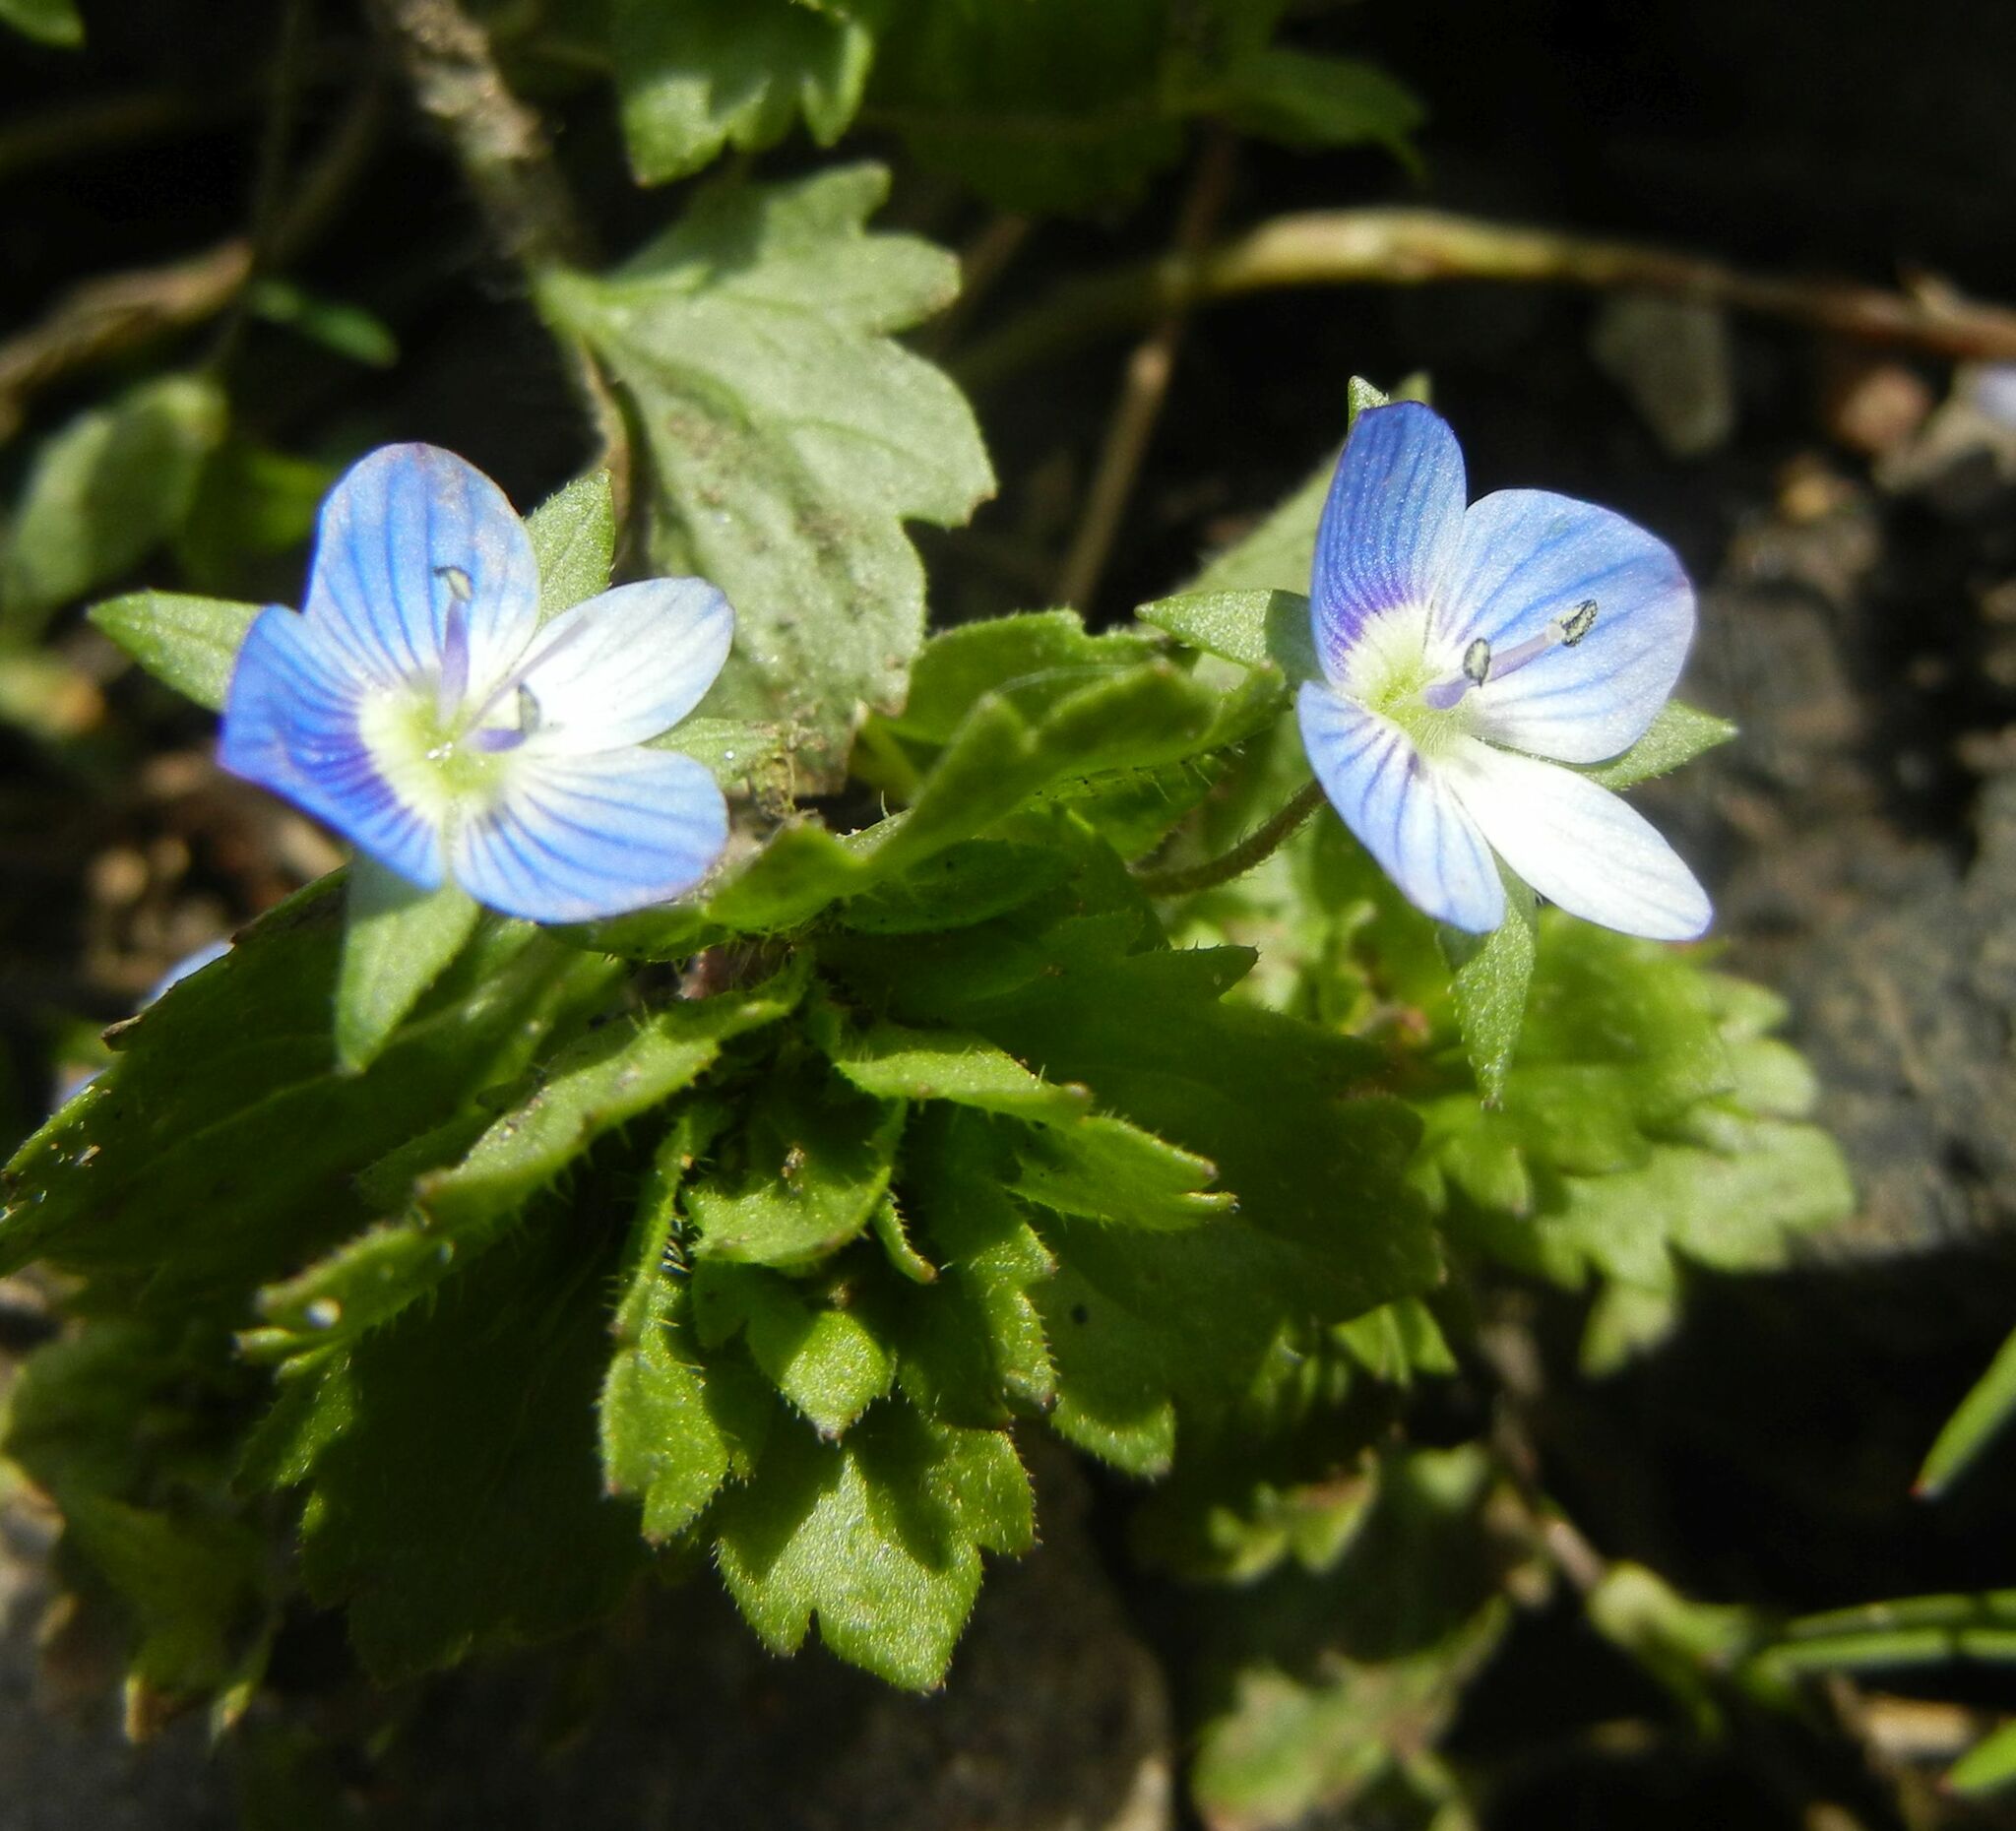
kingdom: Plantae
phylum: Tracheophyta
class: Magnoliopsida
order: Lamiales
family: Plantaginaceae
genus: Veronica
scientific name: Veronica persica
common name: Common field-speedwell
